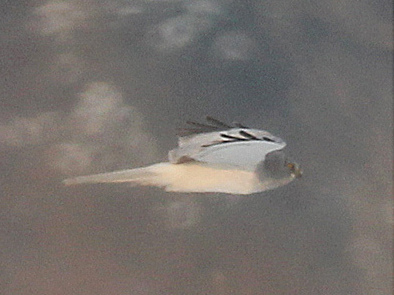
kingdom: Animalia
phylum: Chordata
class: Aves
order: Accipitriformes
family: Accipitridae
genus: Circus
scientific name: Circus cyaneus
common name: Hen harrier
